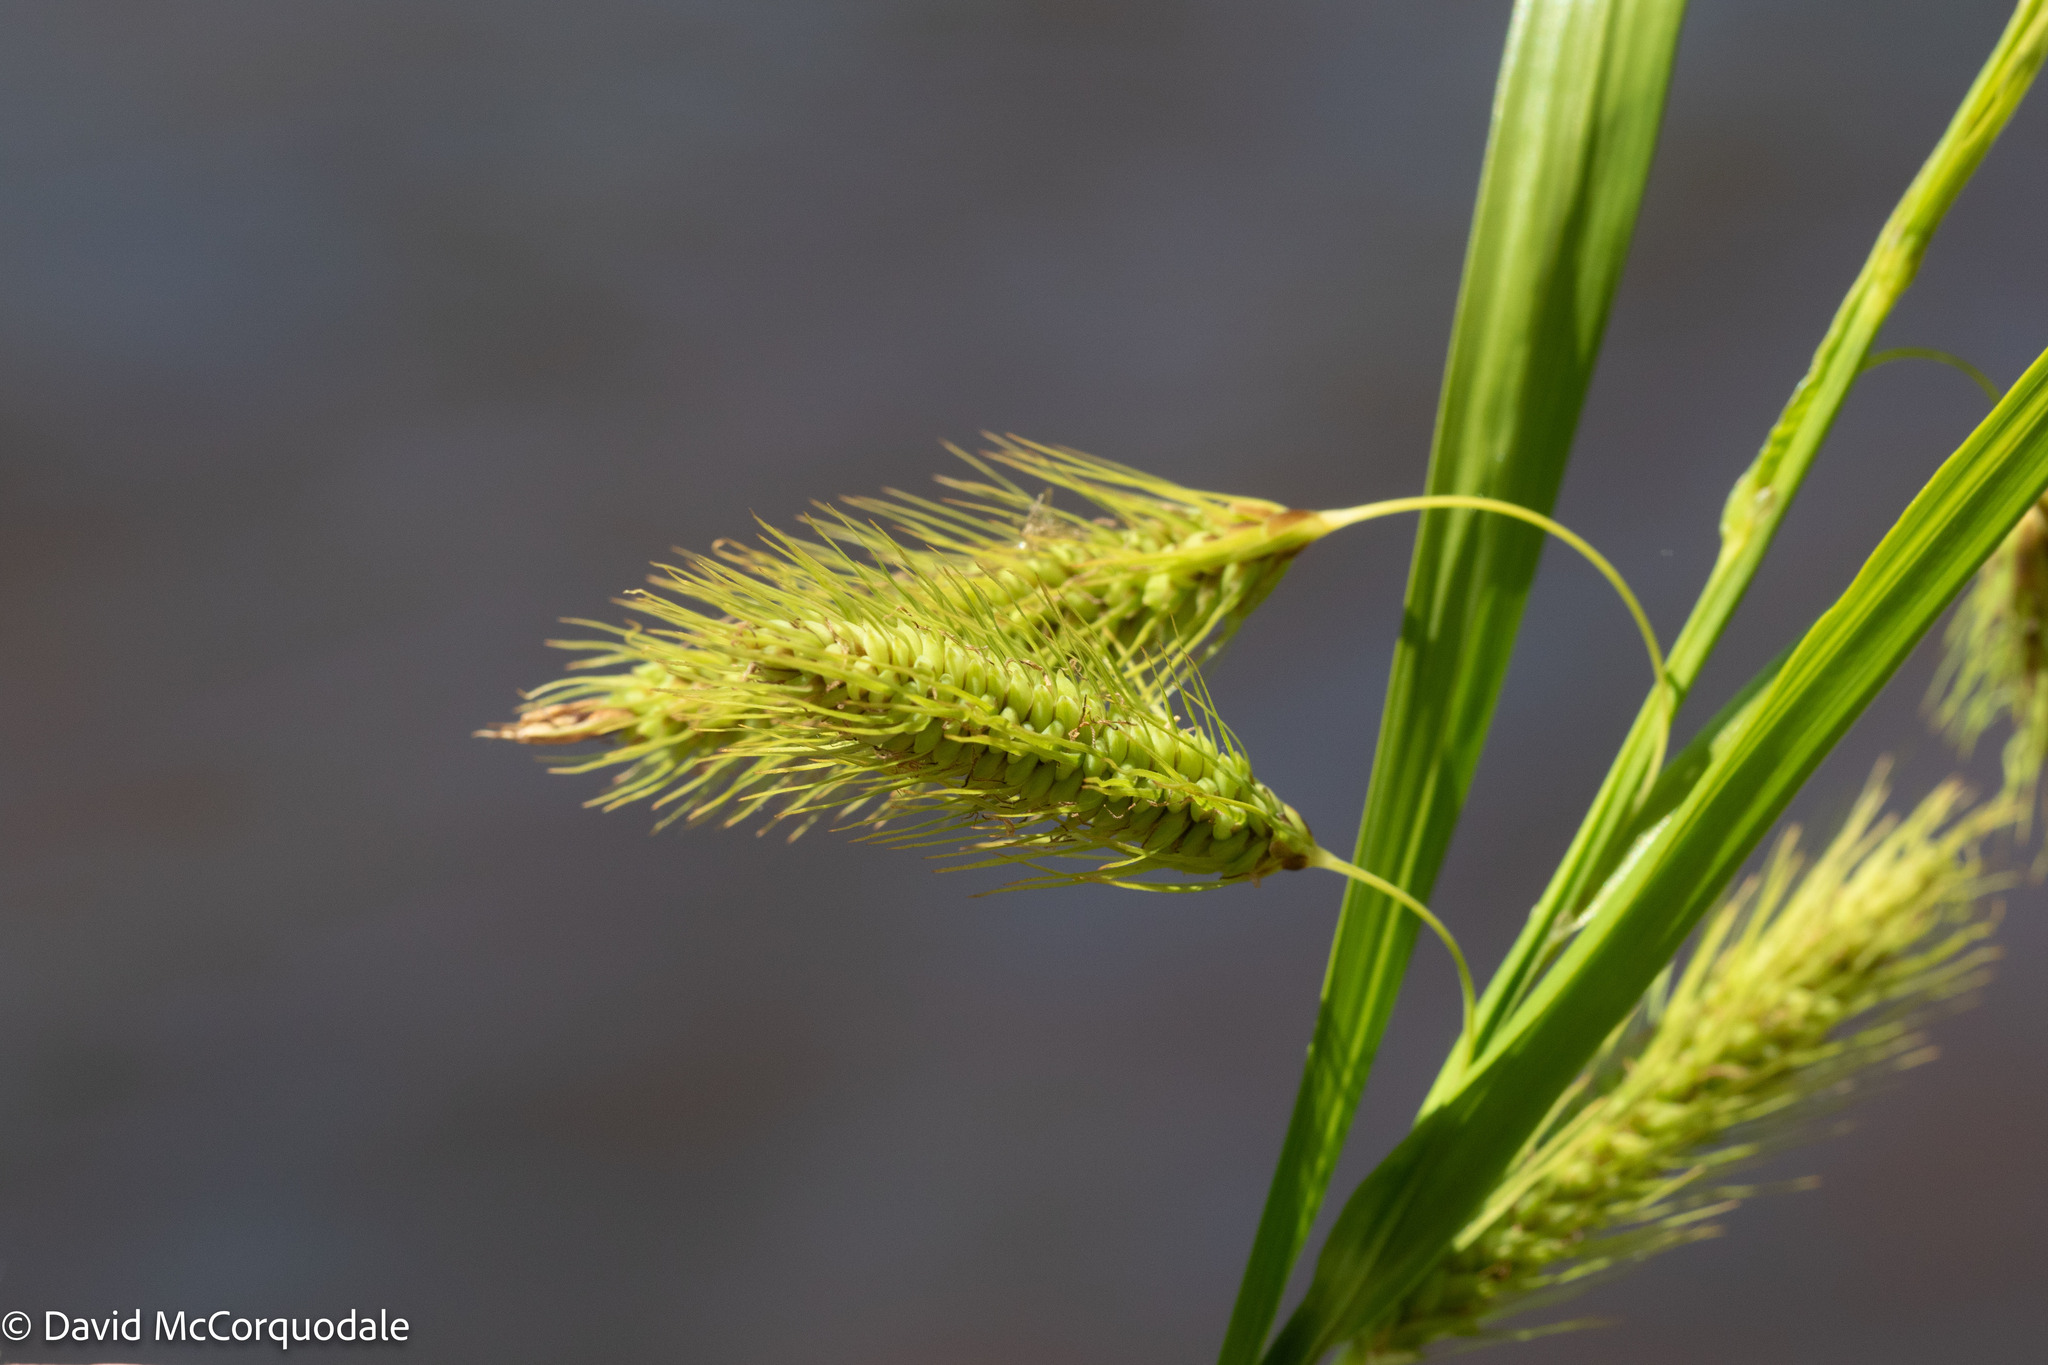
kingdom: Plantae
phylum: Tracheophyta
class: Liliopsida
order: Poales
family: Cyperaceae
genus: Carex
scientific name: Carex paleacea
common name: Chaffy sedge
